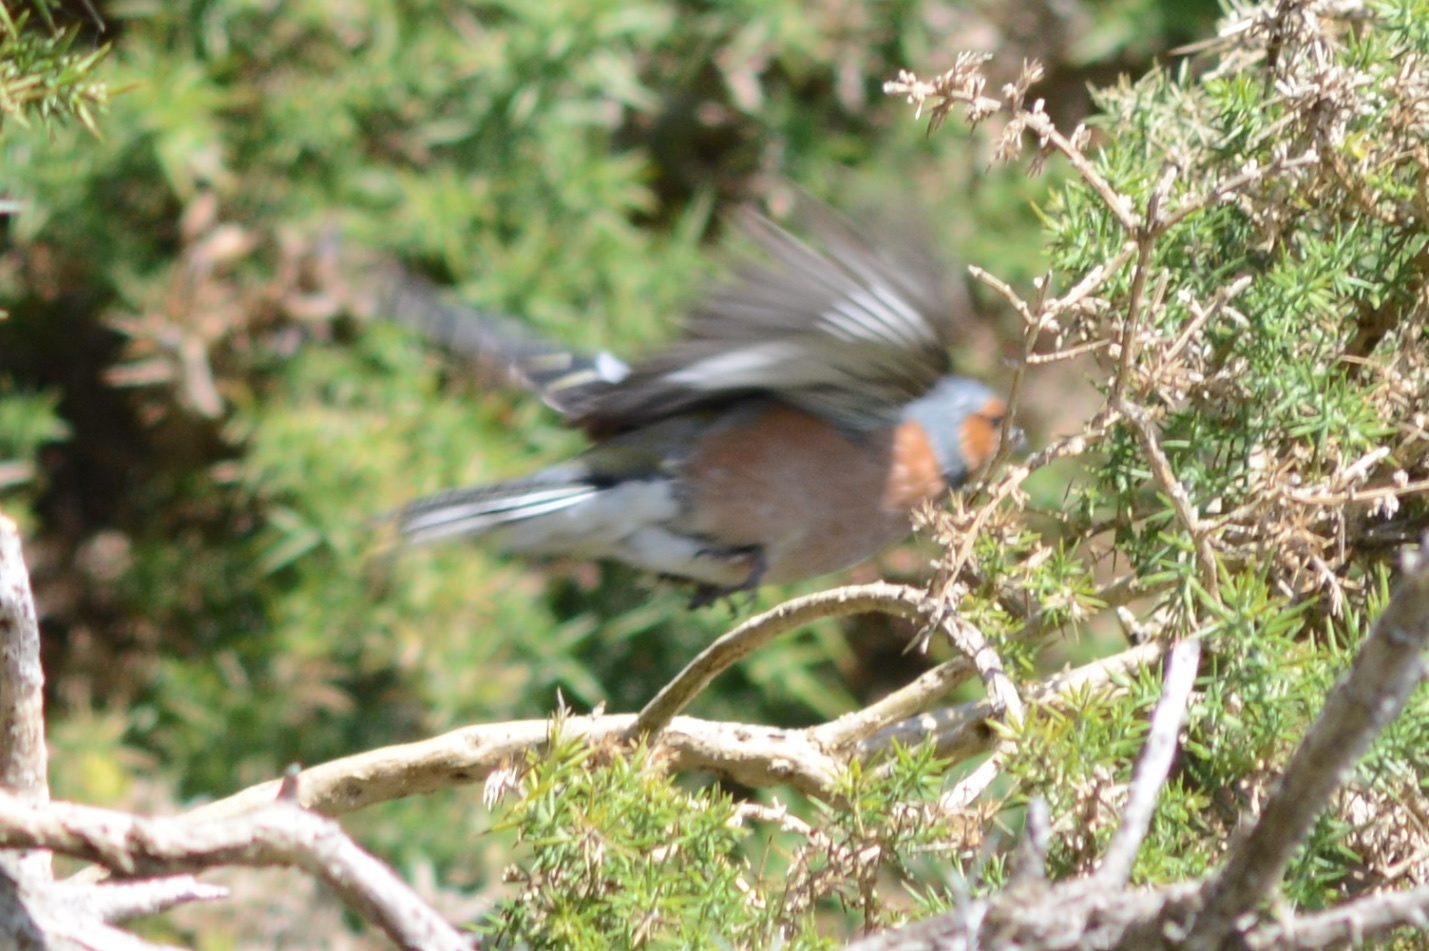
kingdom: Animalia
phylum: Chordata
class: Aves
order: Passeriformes
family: Fringillidae
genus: Fringilla
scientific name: Fringilla coelebs
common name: Common chaffinch
